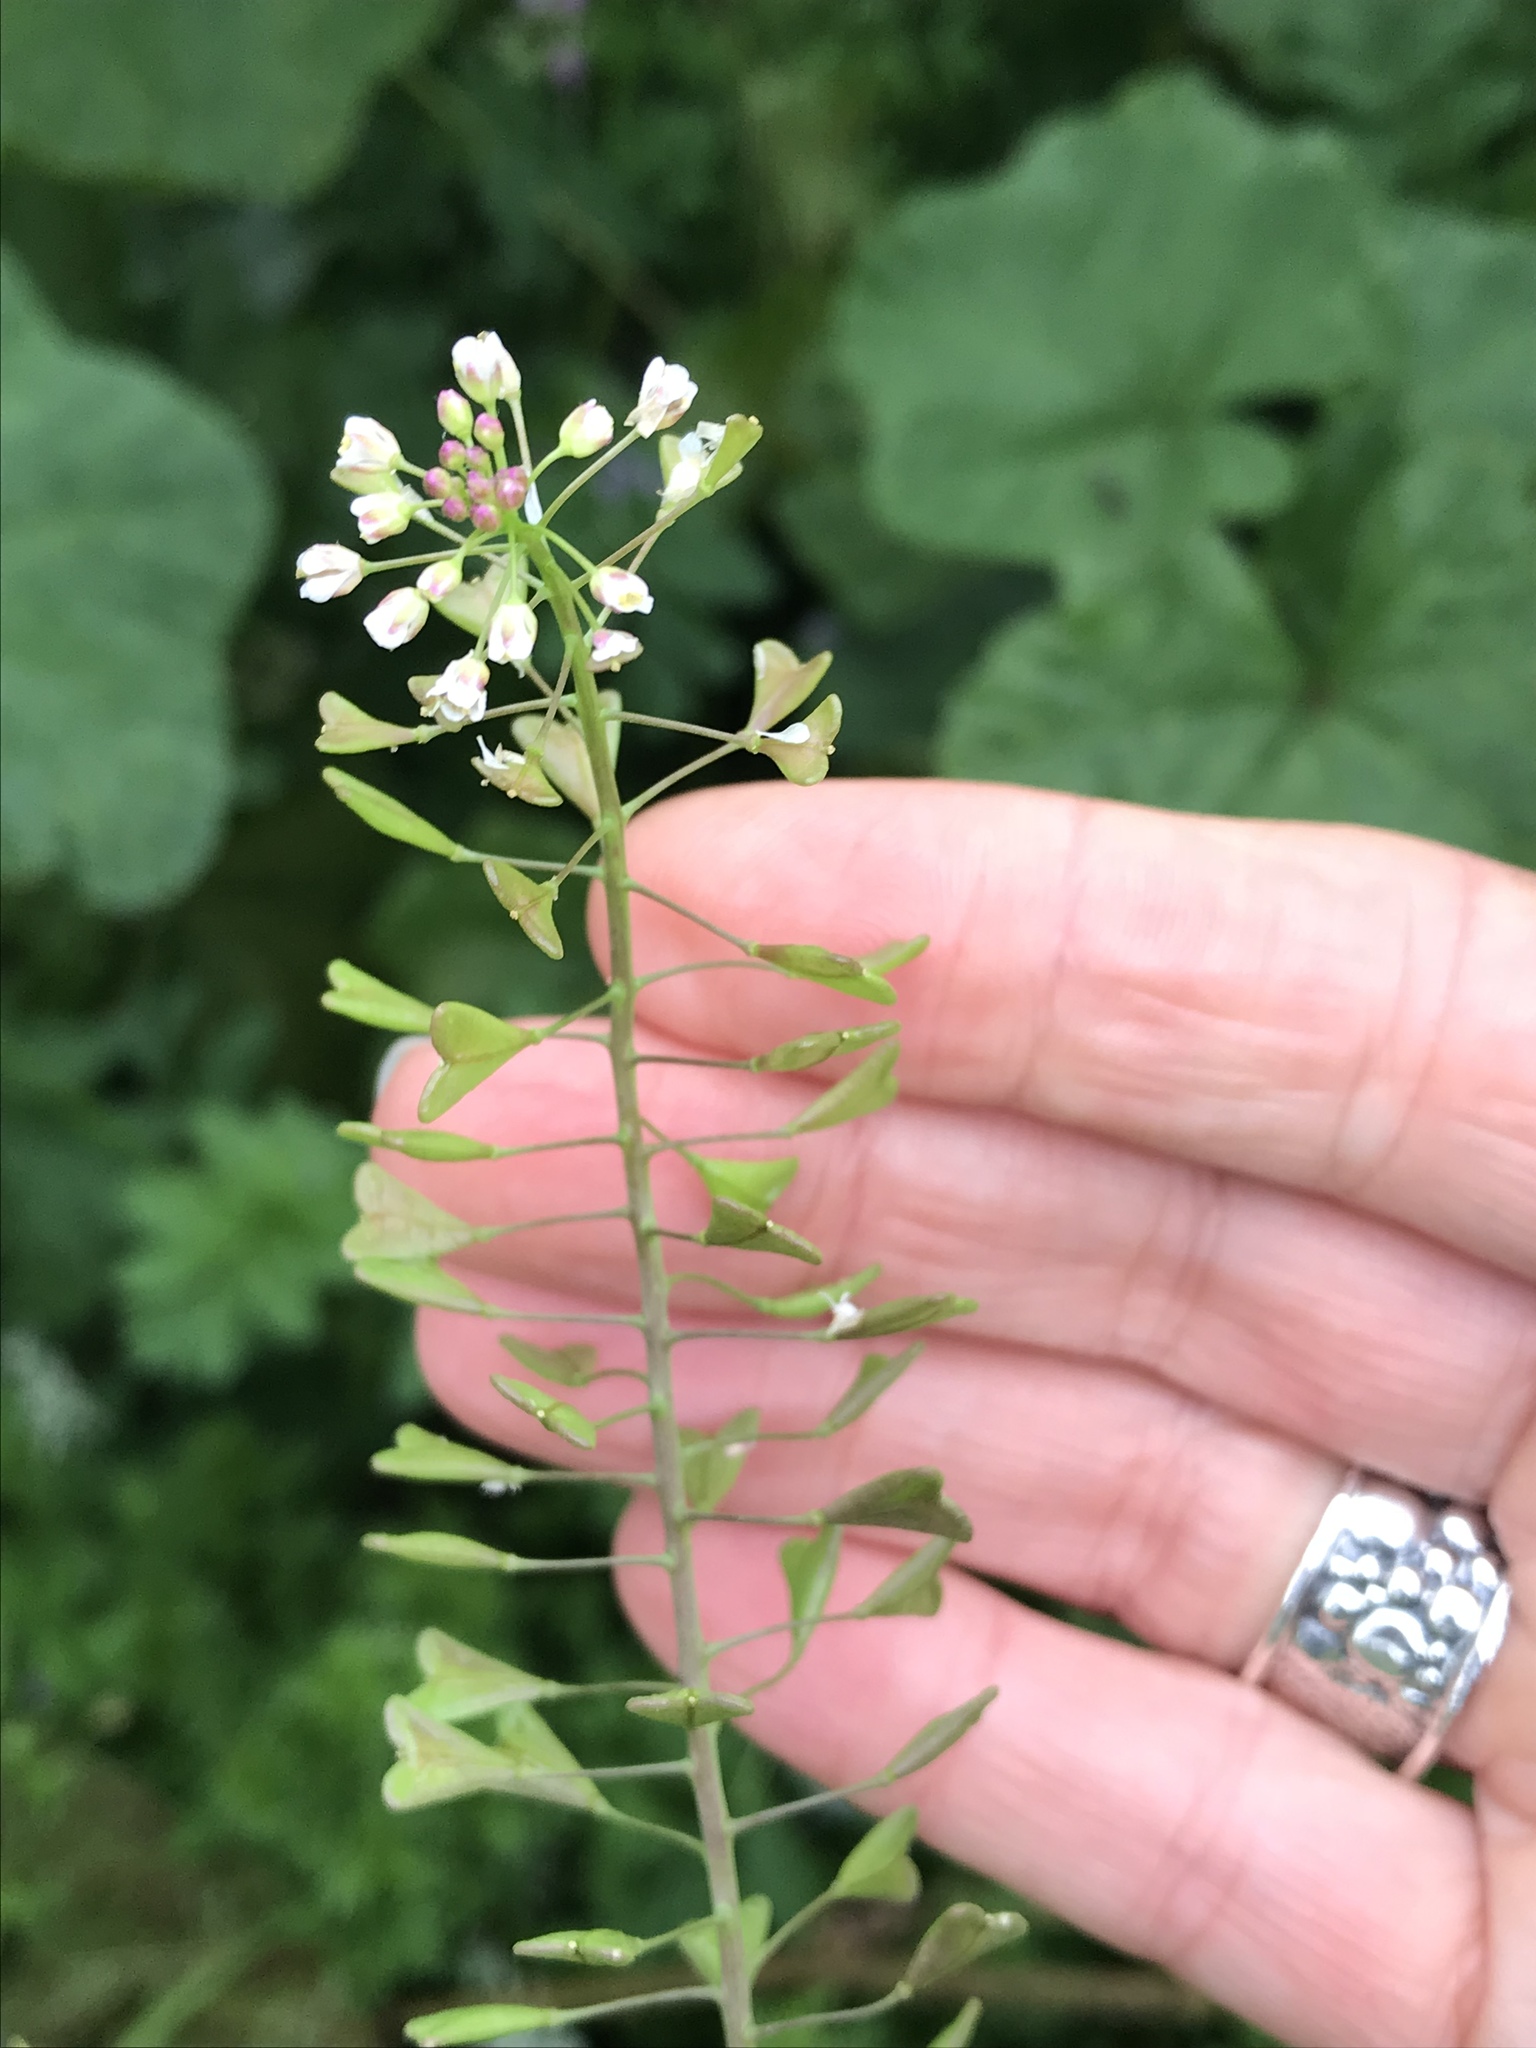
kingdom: Plantae
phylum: Tracheophyta
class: Magnoliopsida
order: Brassicales
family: Brassicaceae
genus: Capsella
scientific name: Capsella bursa-pastoris
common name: Shepherd's purse
